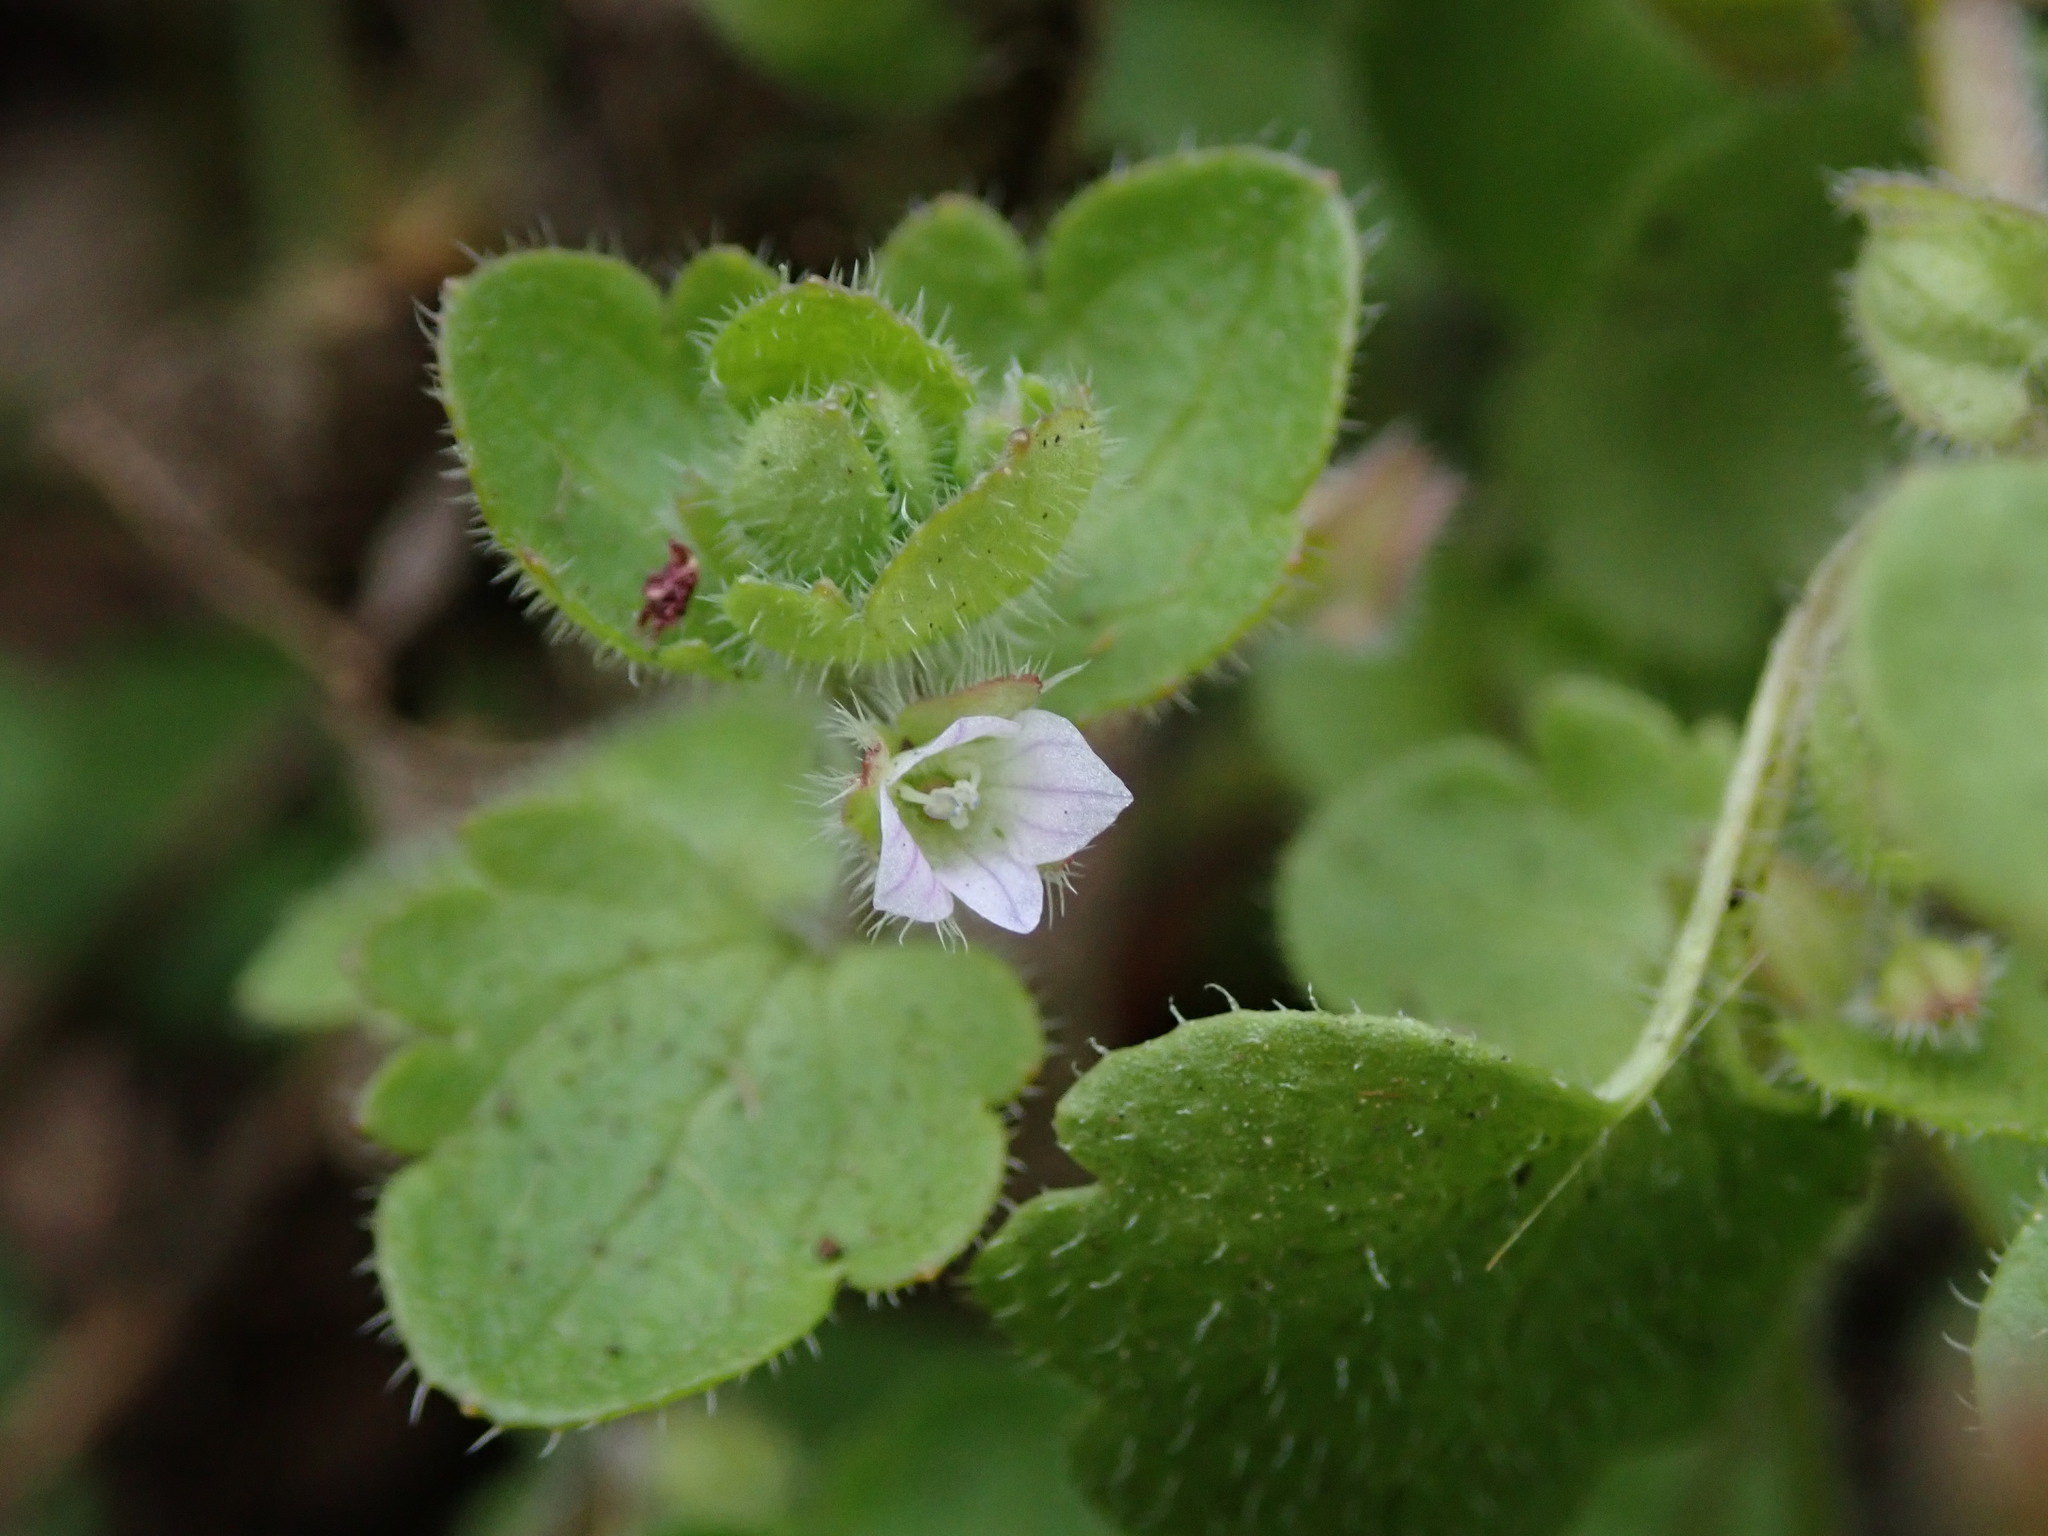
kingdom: Plantae
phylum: Tracheophyta
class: Magnoliopsida
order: Lamiales
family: Plantaginaceae
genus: Veronica
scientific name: Veronica sublobata
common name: False ivy-leaved speedwell
